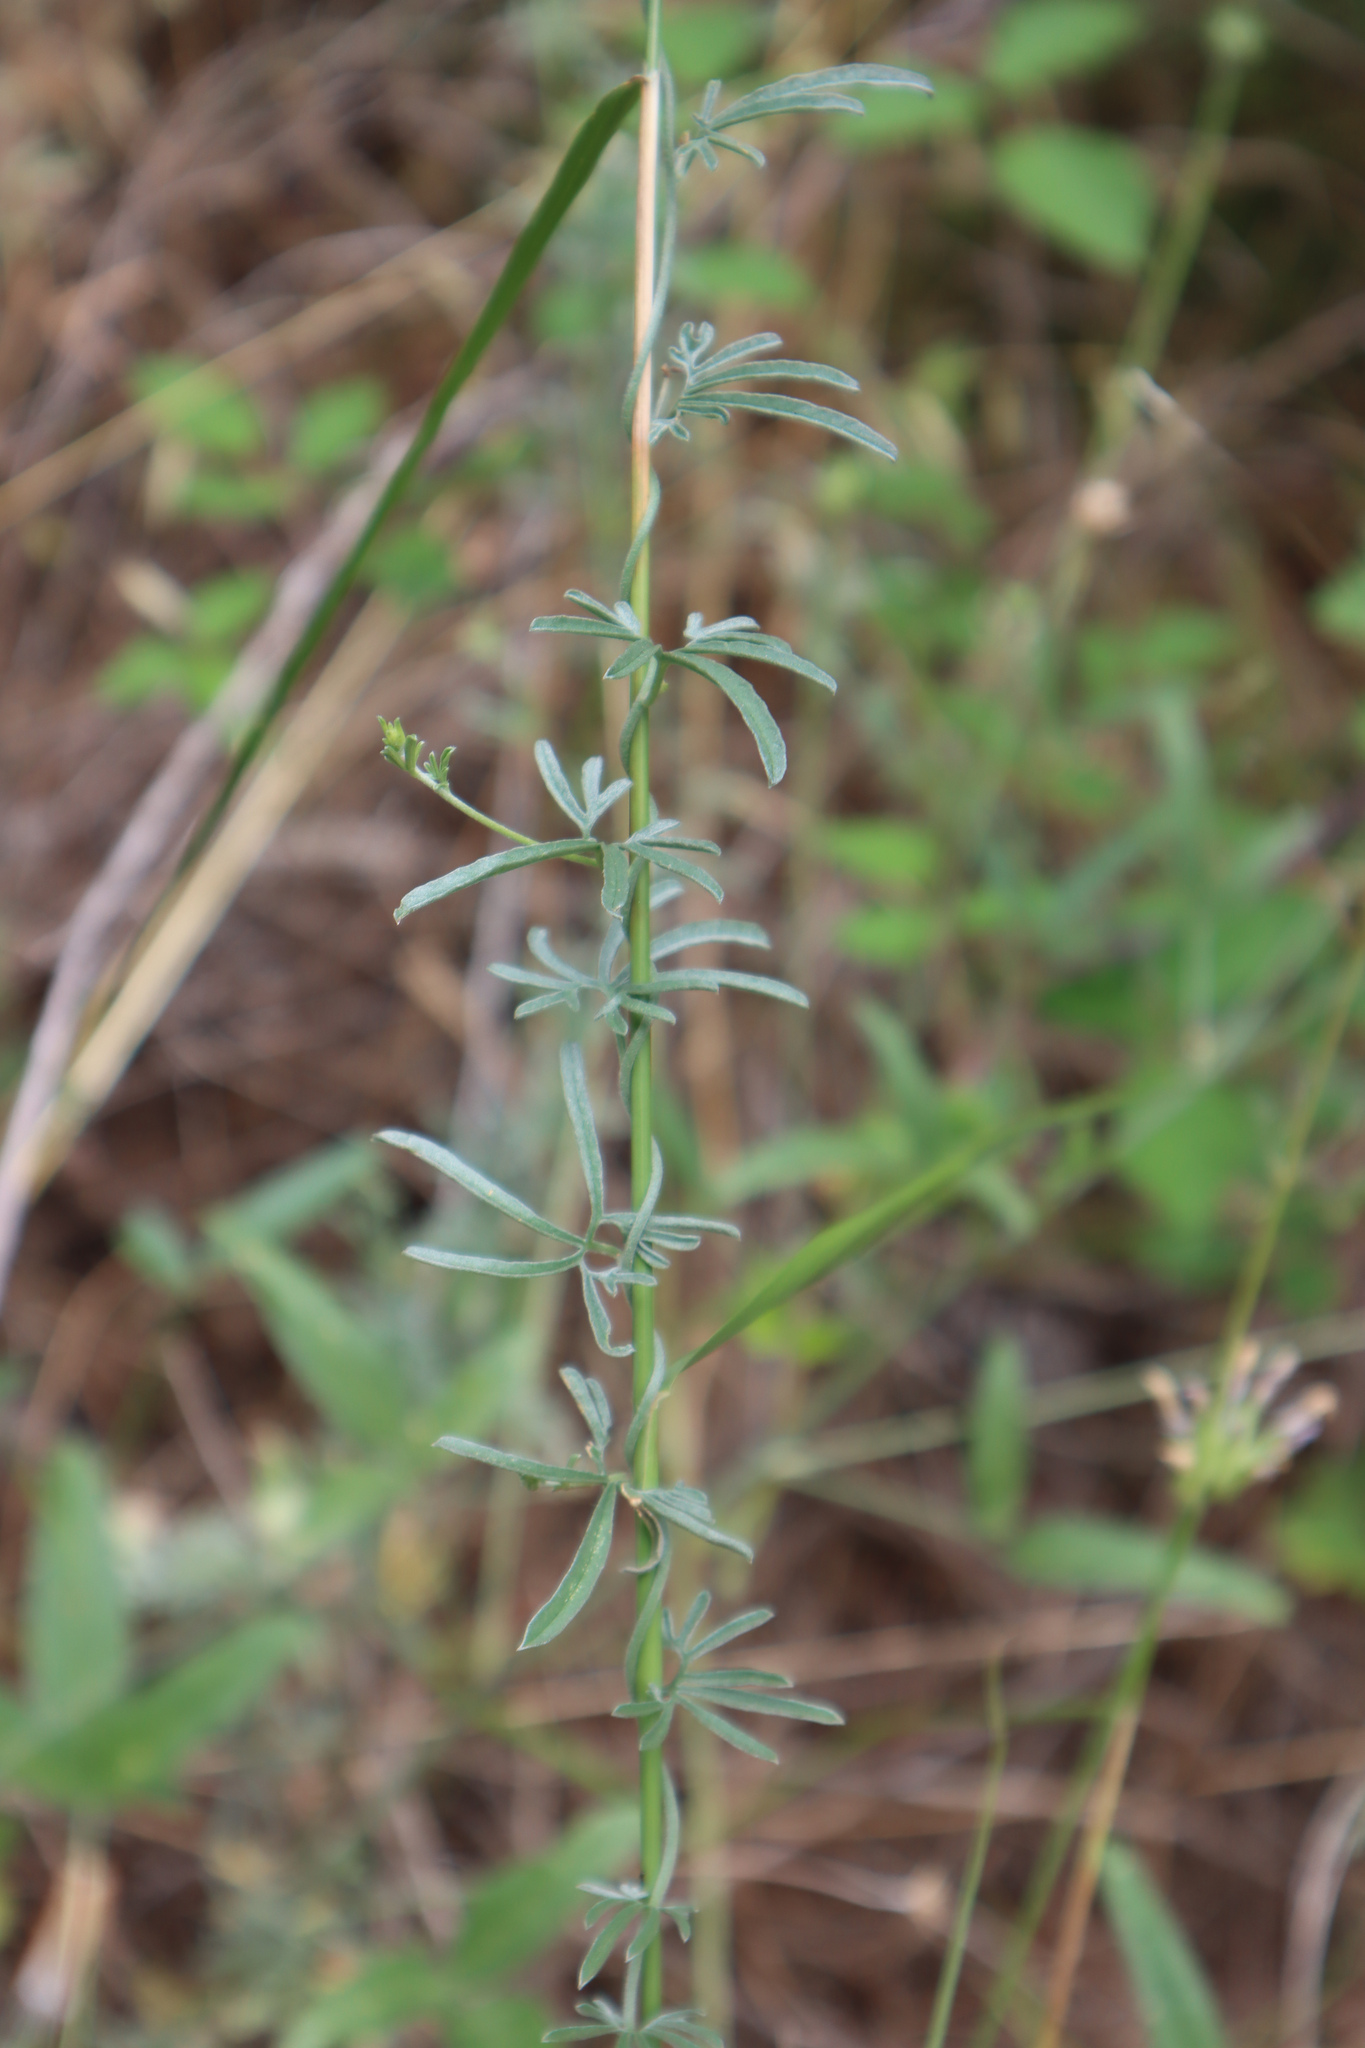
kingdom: Plantae
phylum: Tracheophyta
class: Magnoliopsida
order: Solanales
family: Convolvulaceae
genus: Convolvulus
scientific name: Convolvulus elegantissimus
